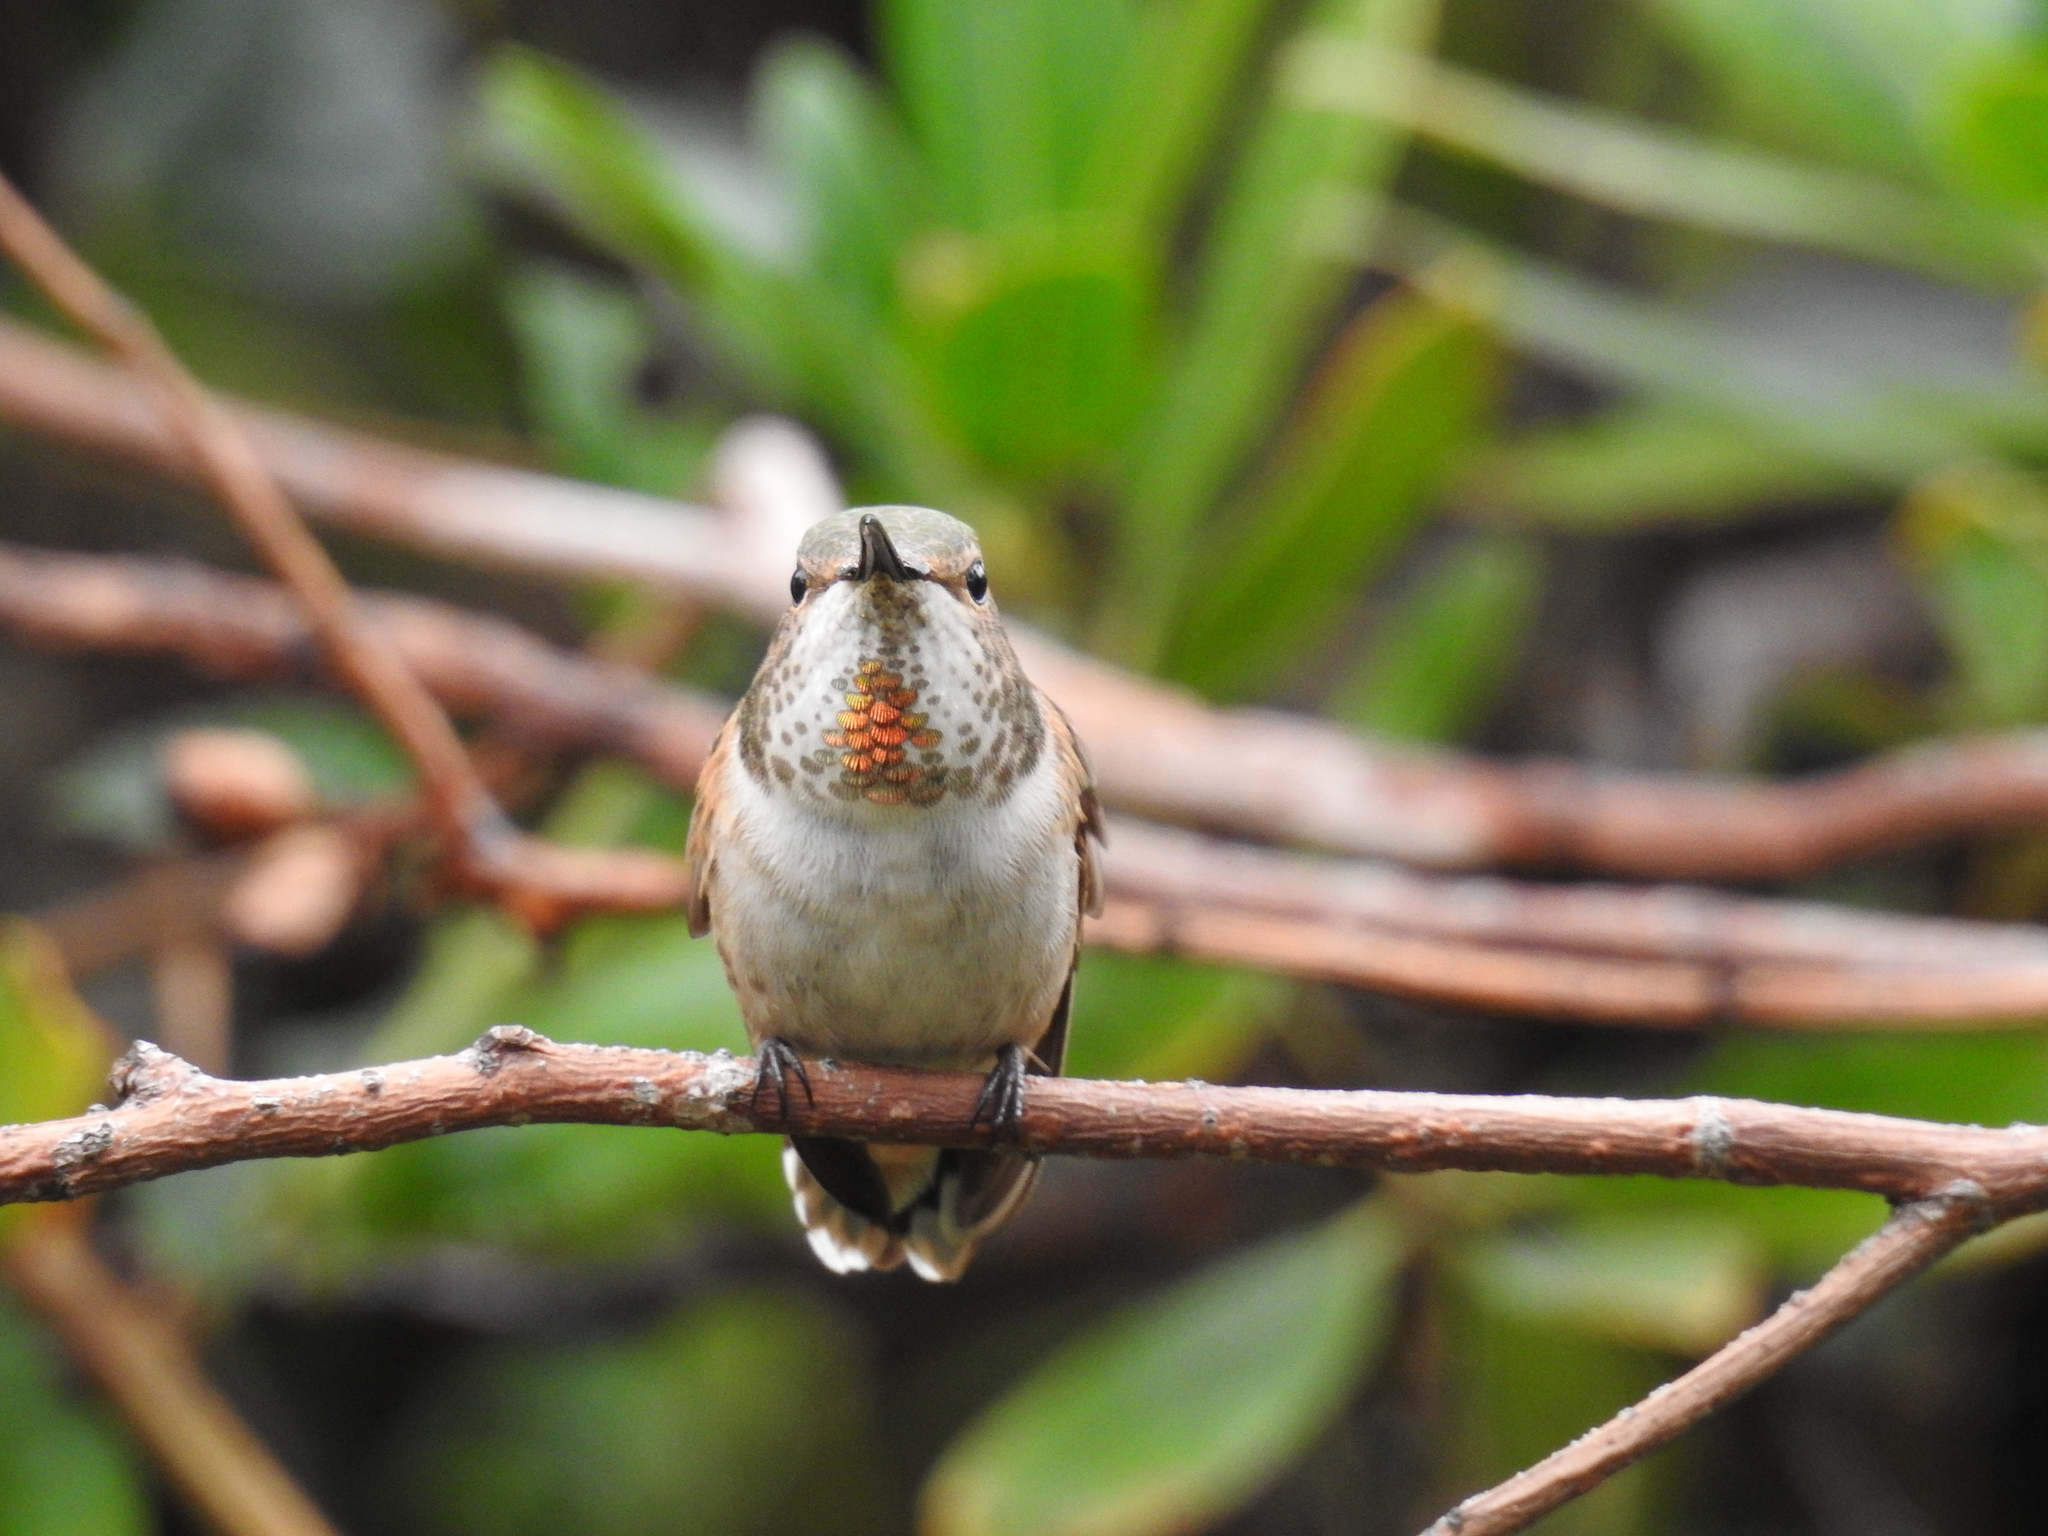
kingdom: Animalia
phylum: Chordata
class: Aves
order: Apodiformes
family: Trochilidae
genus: Selasphorus
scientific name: Selasphorus sasin
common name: Allen's hummingbird
